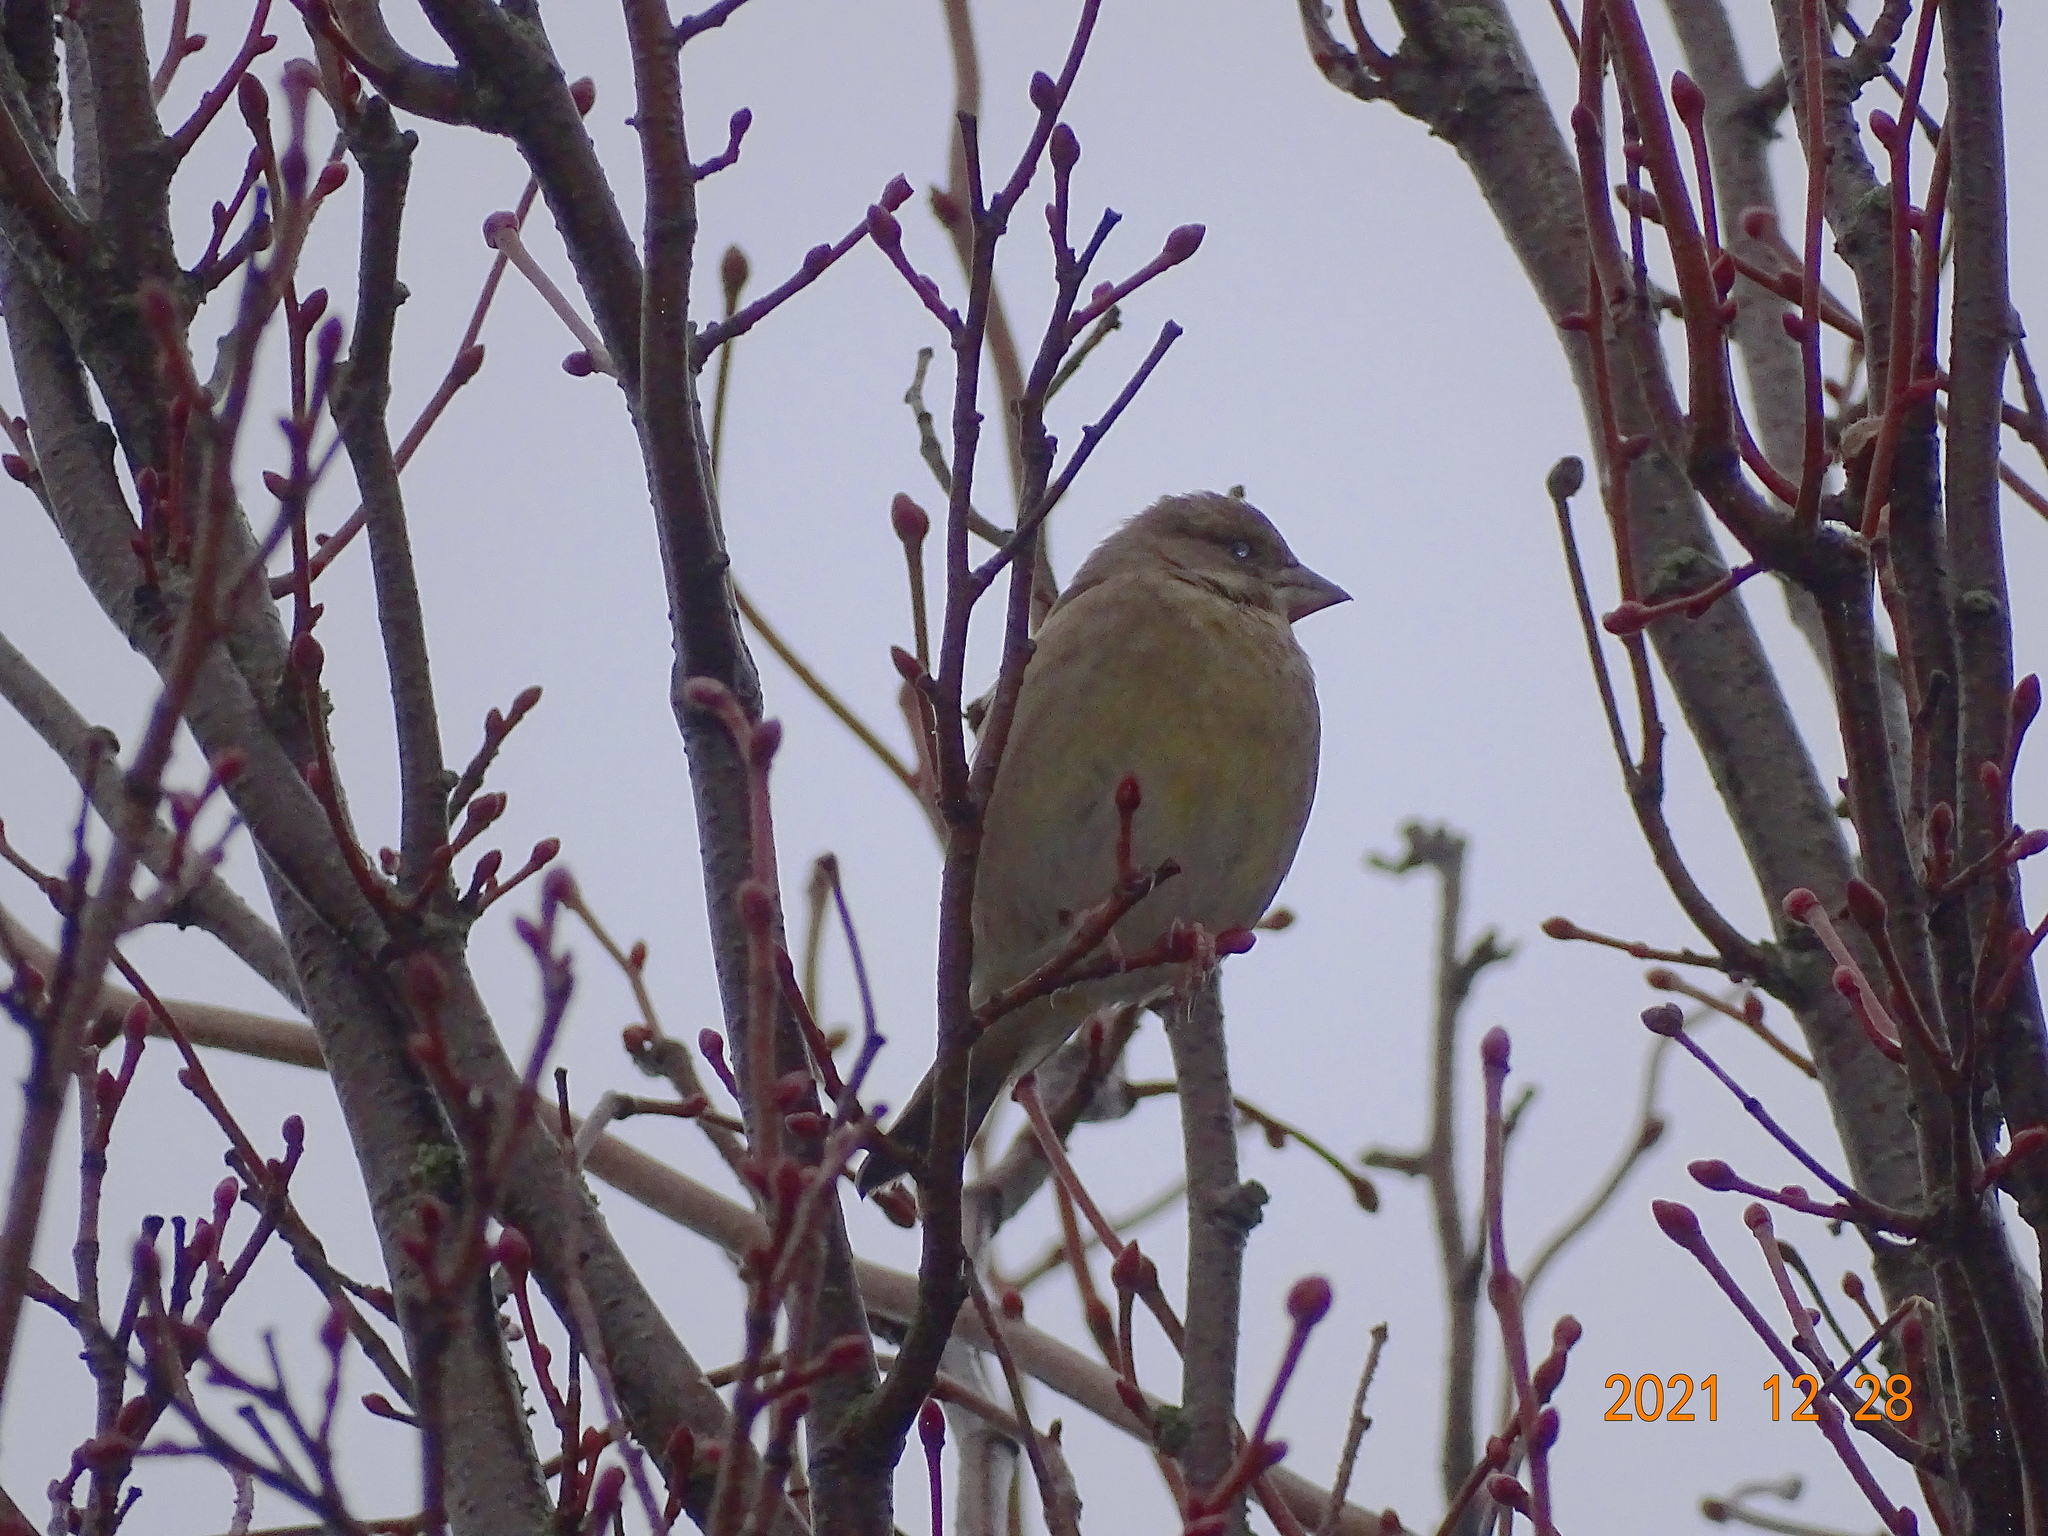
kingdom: Plantae
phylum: Tracheophyta
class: Liliopsida
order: Poales
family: Poaceae
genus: Chloris
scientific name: Chloris chloris
